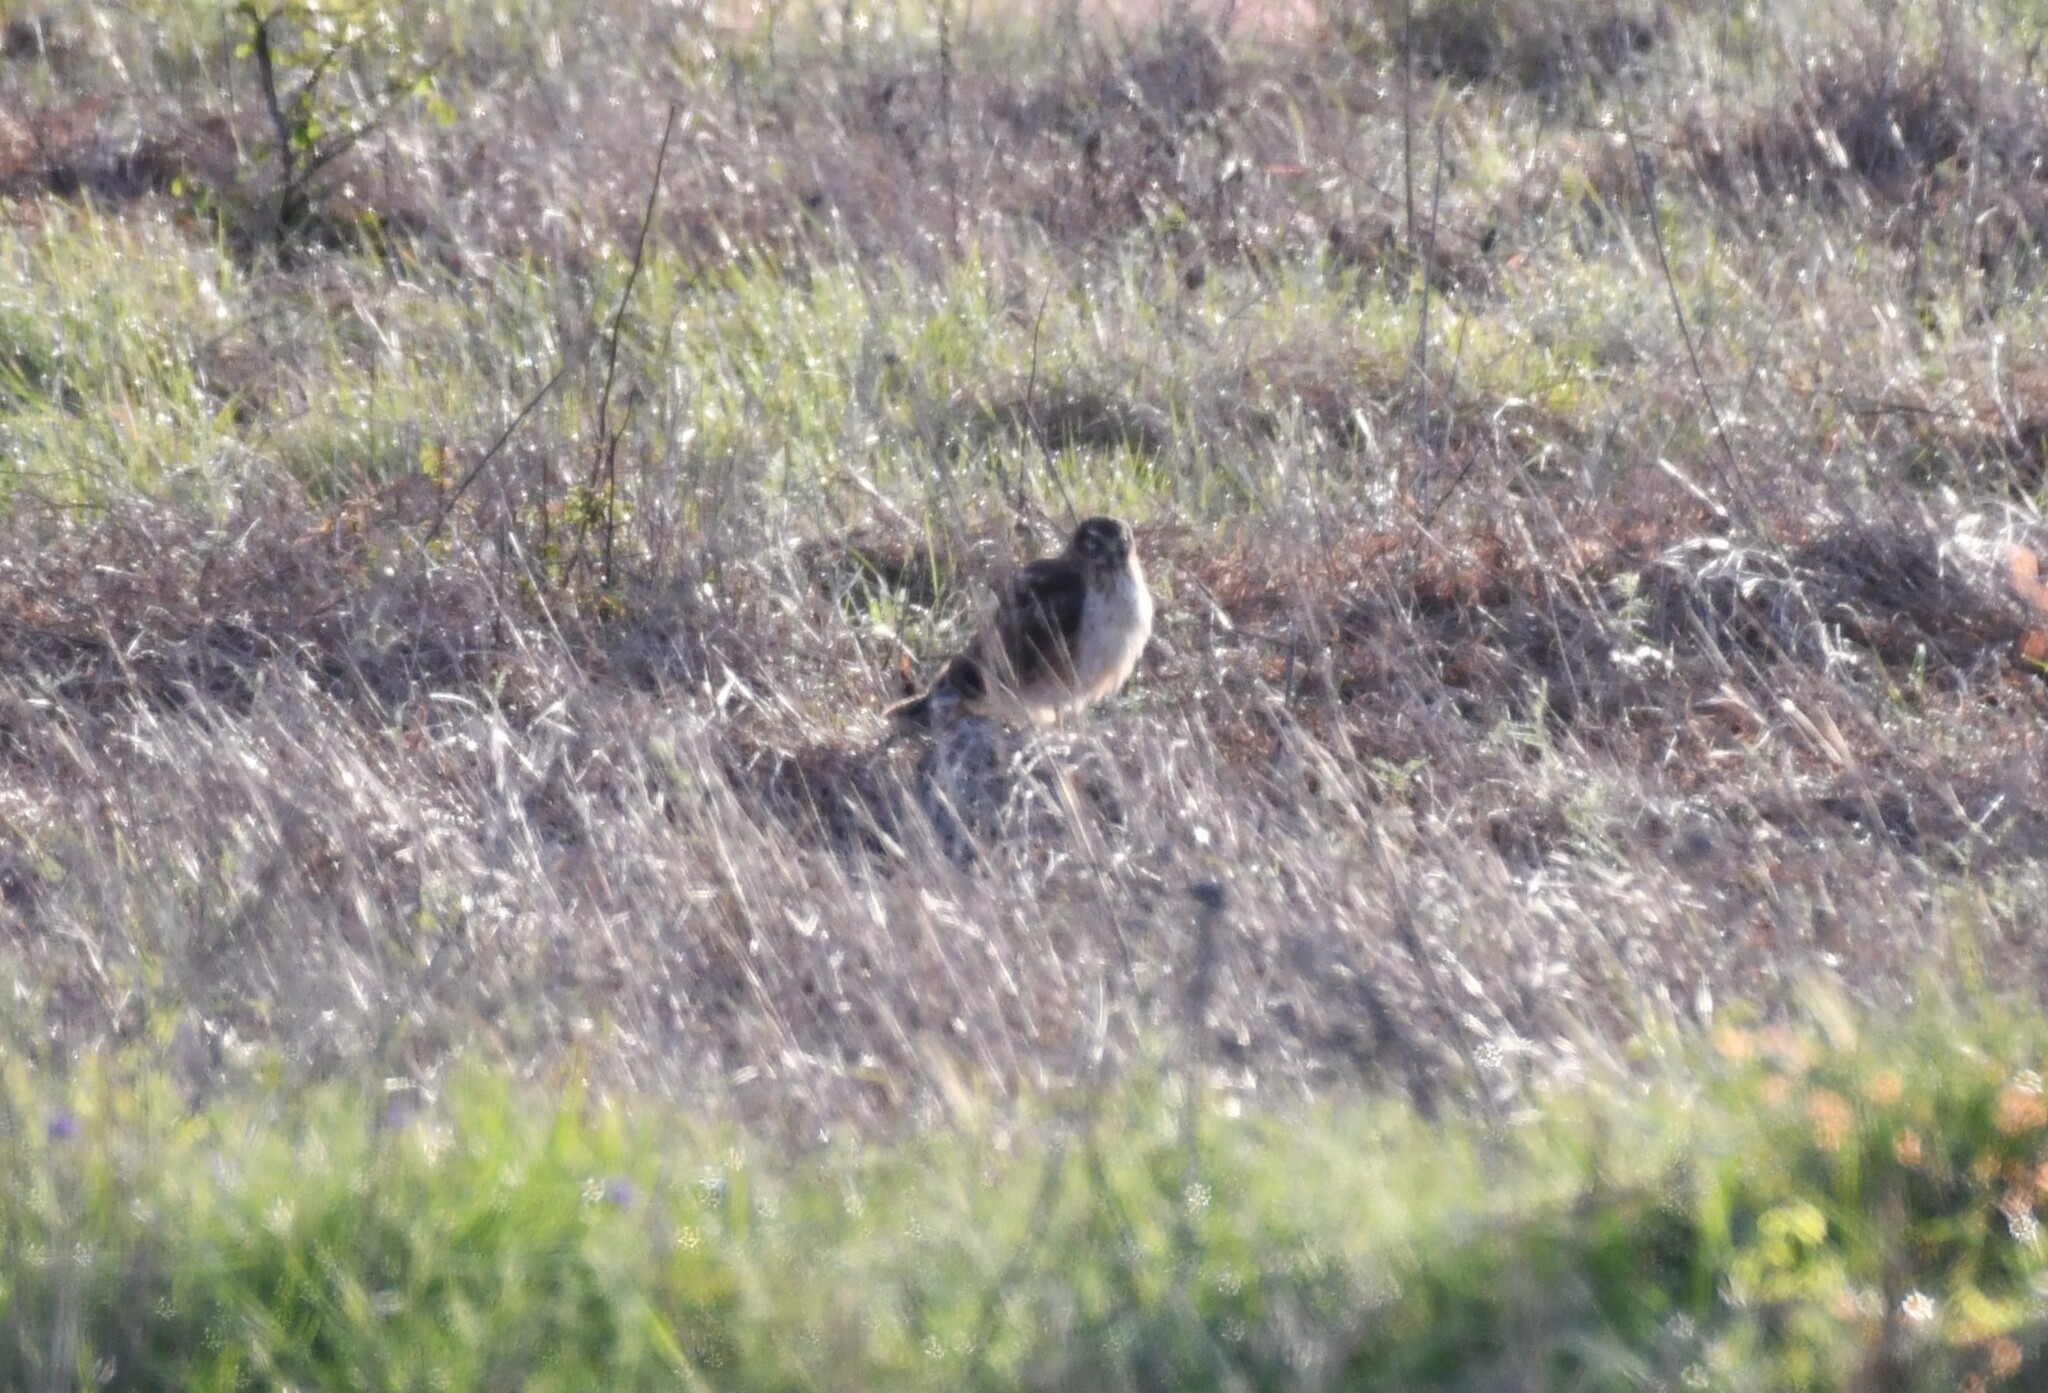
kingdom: Animalia
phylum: Chordata
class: Aves
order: Accipitriformes
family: Accipitridae
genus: Circus
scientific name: Circus cyaneus
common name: Hen harrier
